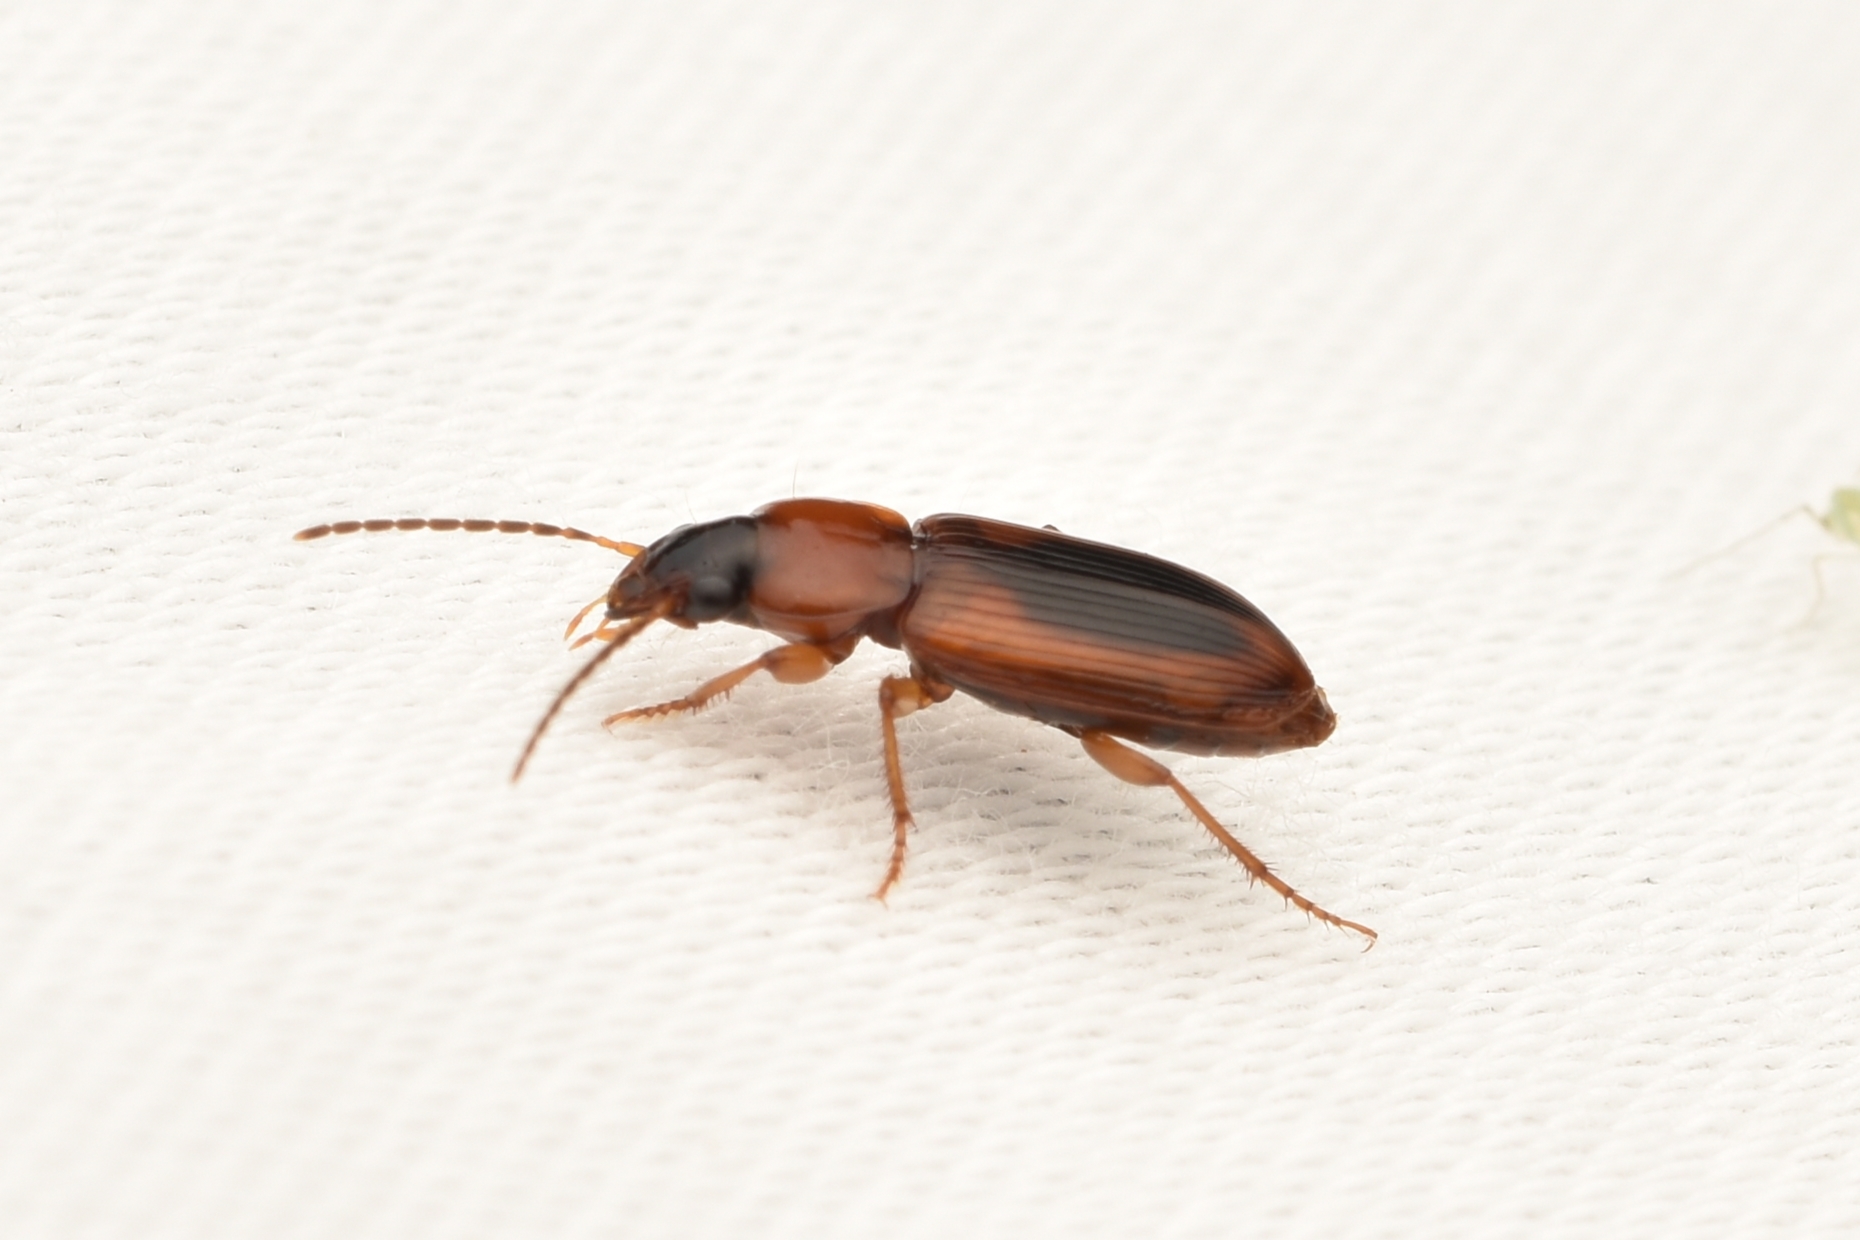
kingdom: Animalia
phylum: Arthropoda
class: Insecta
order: Coleoptera
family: Carabidae
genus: Stenolophus
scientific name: Stenolophus dissimilis
